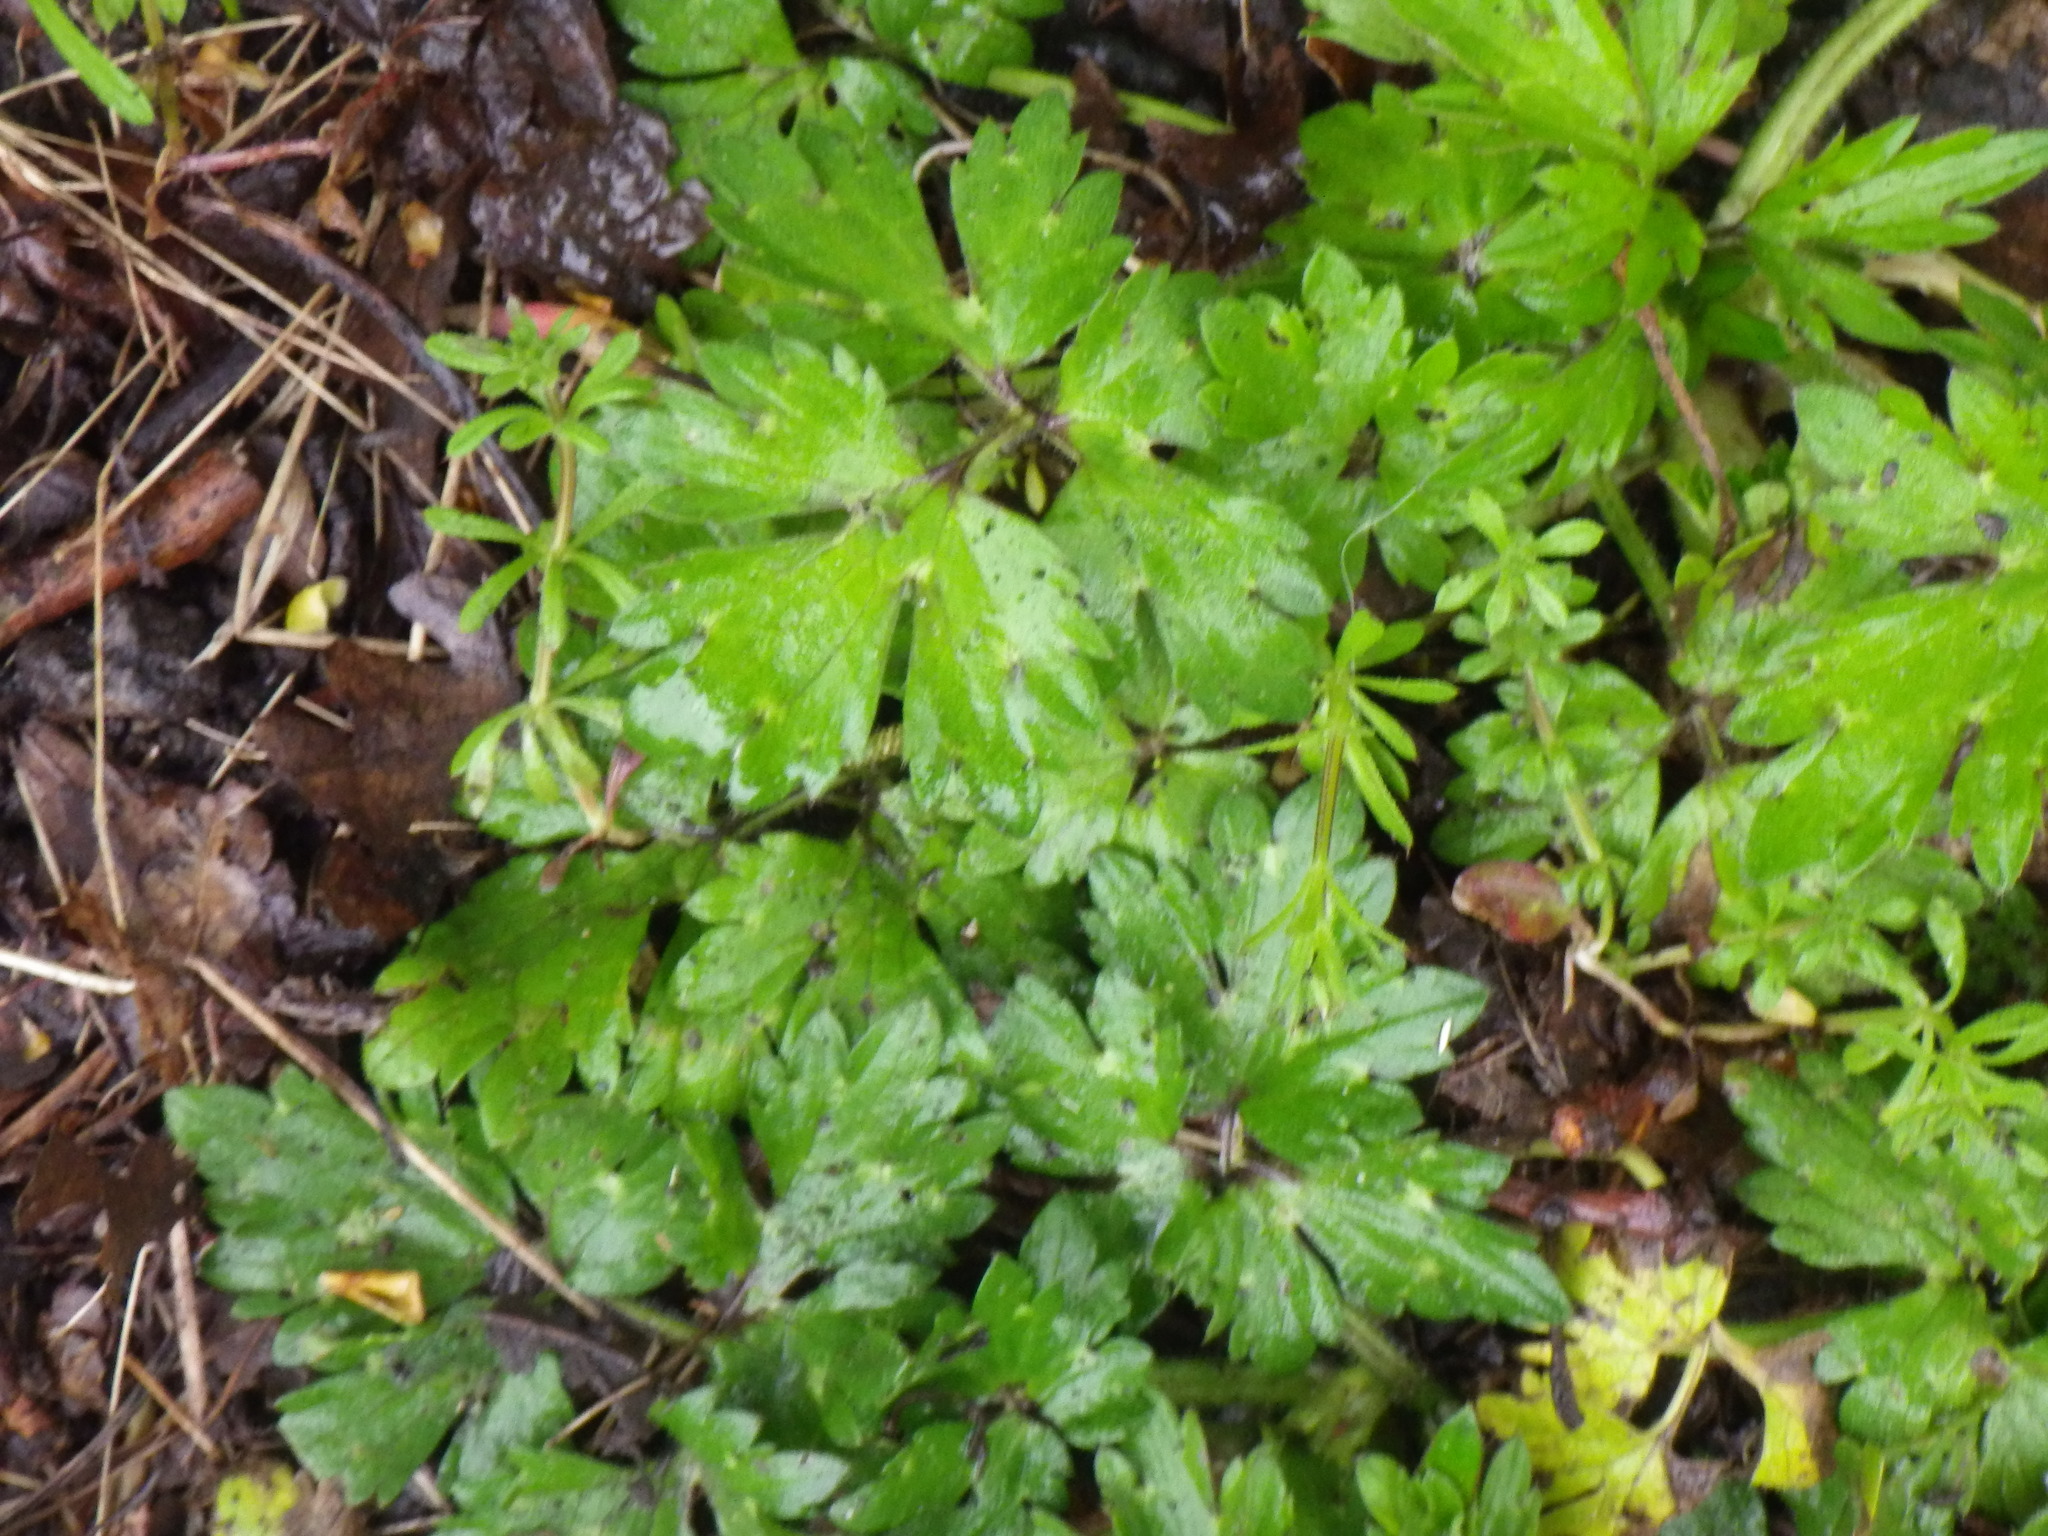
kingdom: Plantae
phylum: Tracheophyta
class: Magnoliopsida
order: Ranunculales
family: Ranunculaceae
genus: Ranunculus
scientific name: Ranunculus repens
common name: Creeping buttercup
